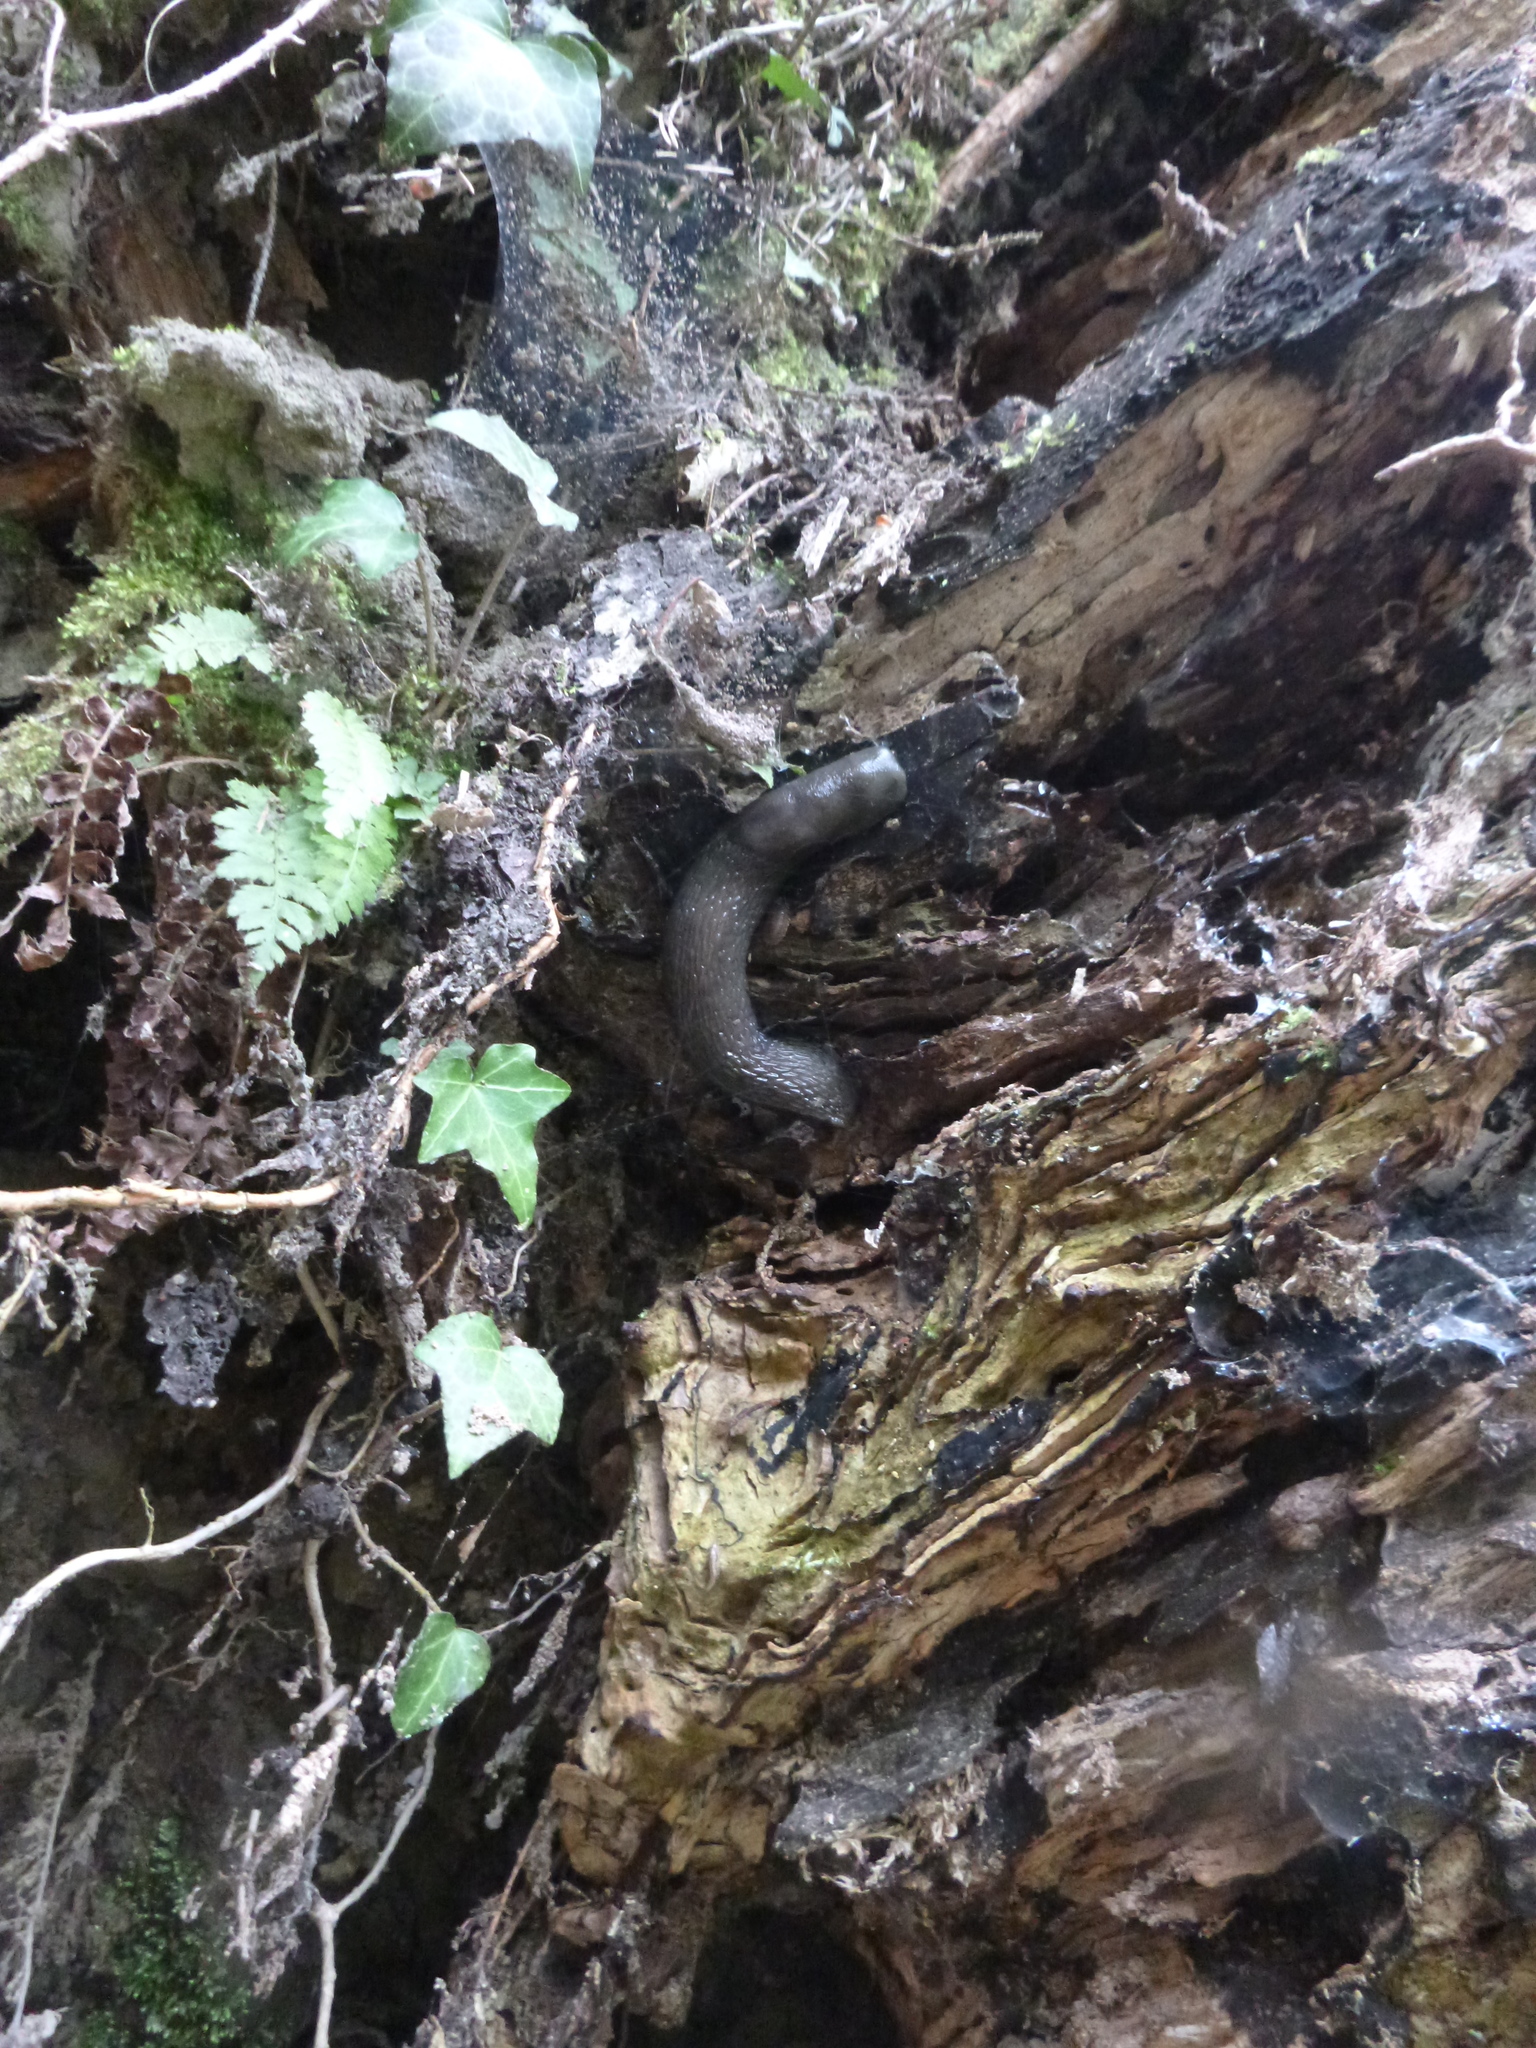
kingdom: Animalia
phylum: Mollusca
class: Gastropoda
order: Stylommatophora
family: Limacidae
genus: Limax
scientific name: Limax cinereoniger
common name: Ash-black slug
